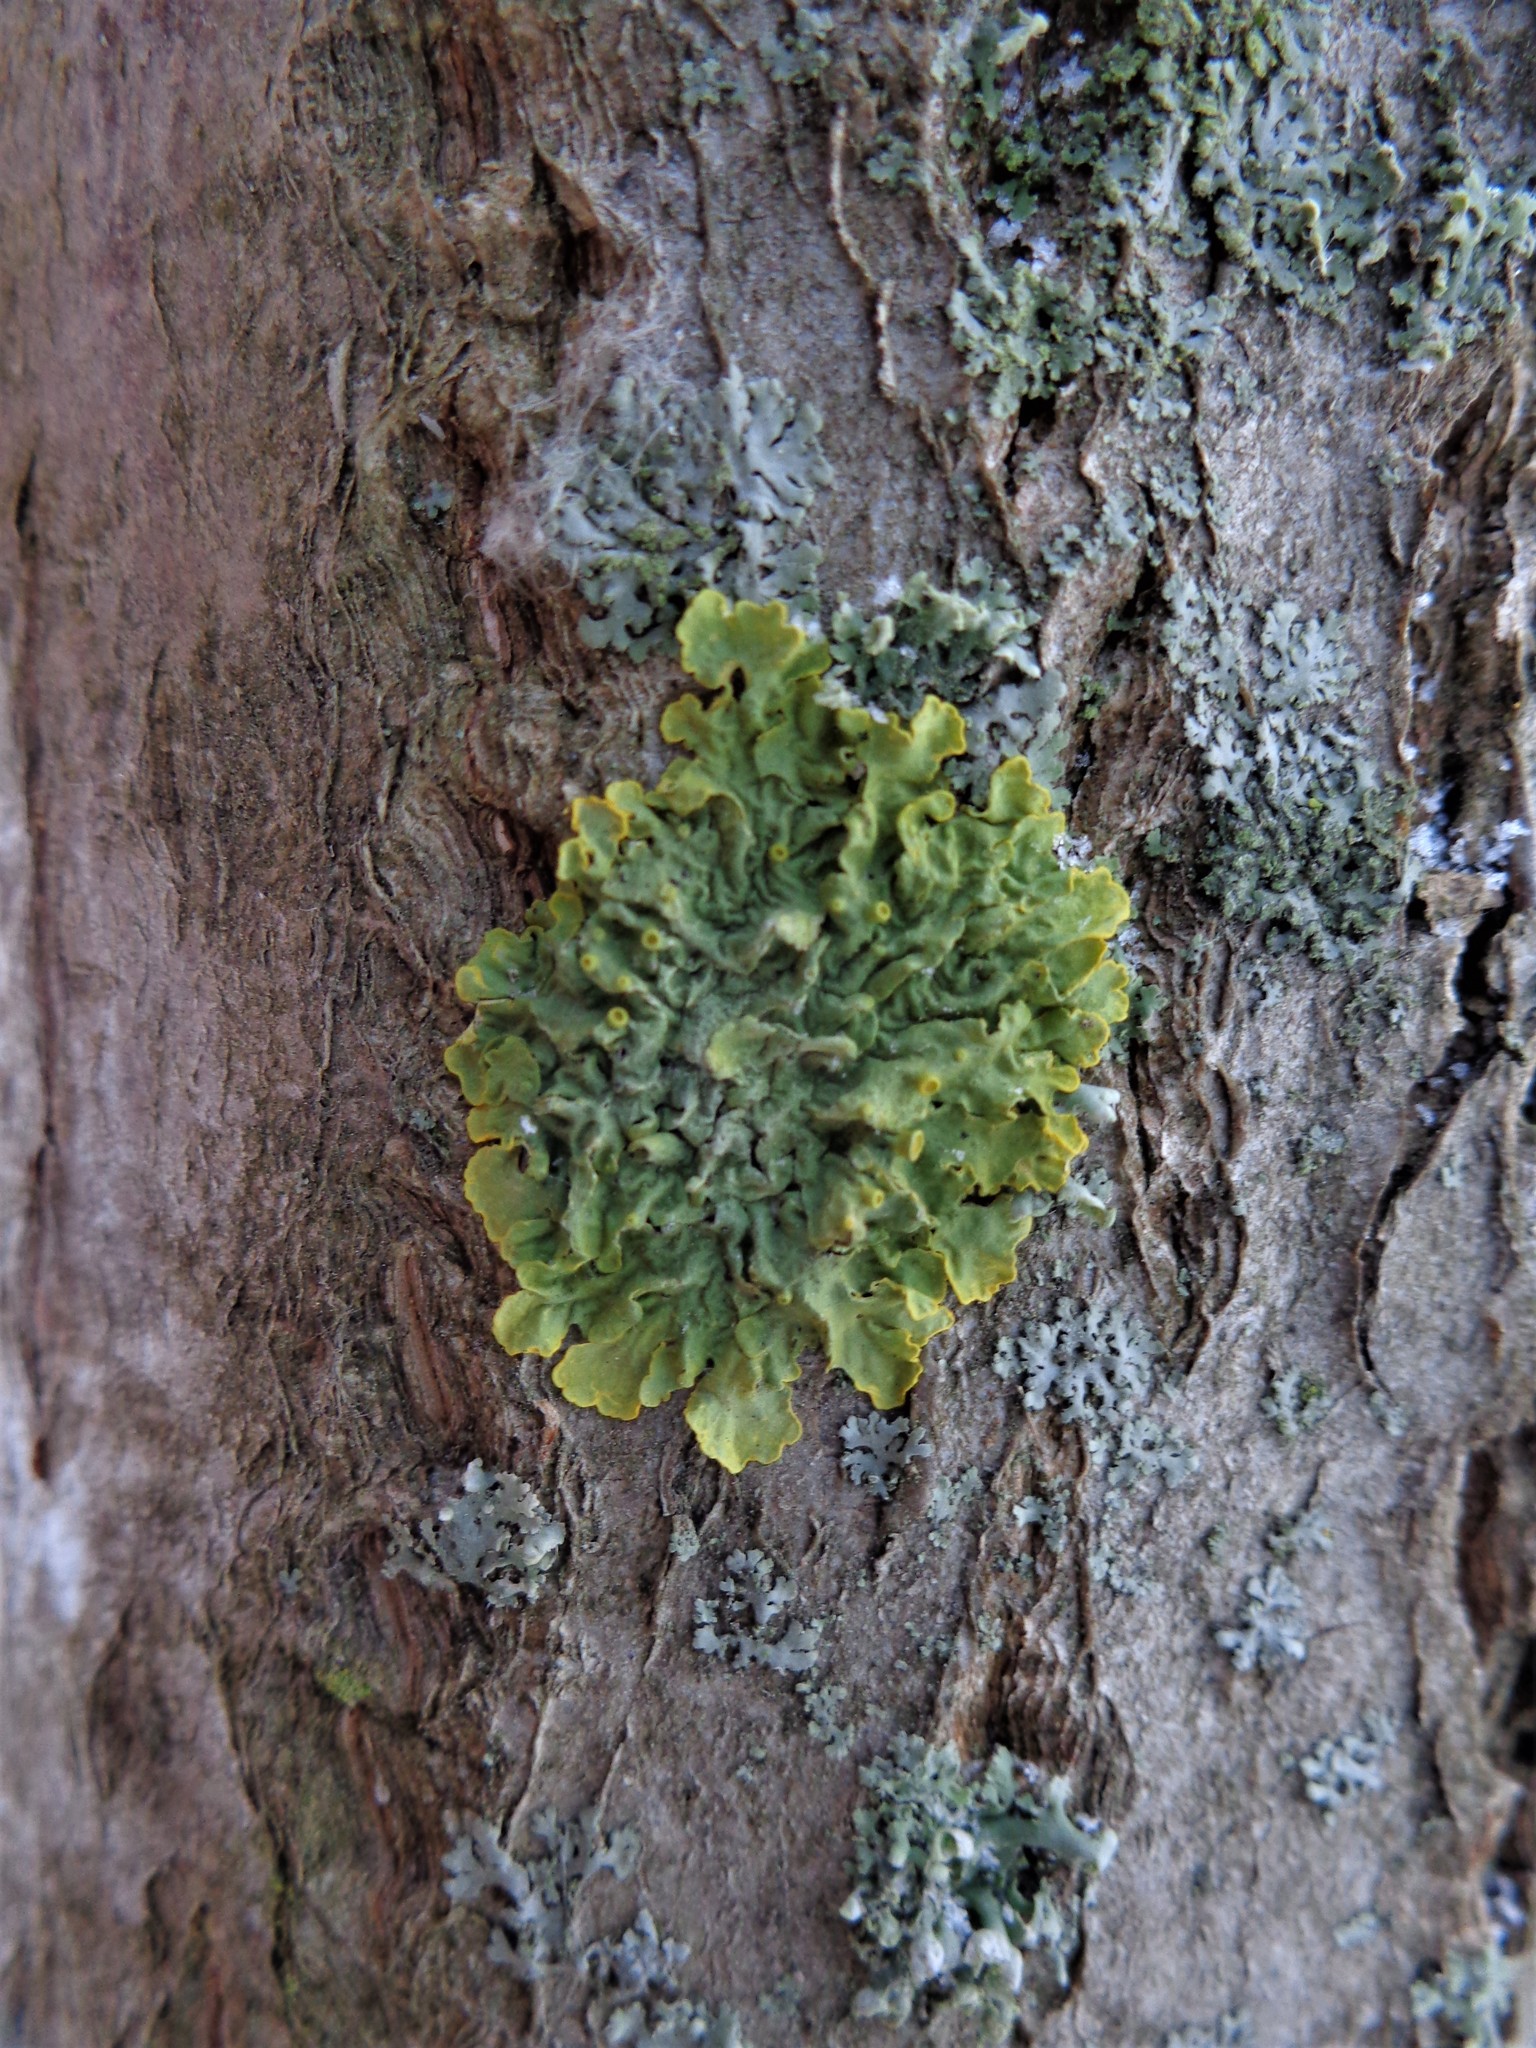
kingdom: Fungi
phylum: Ascomycota
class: Lecanoromycetes
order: Teloschistales
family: Teloschistaceae
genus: Xanthoria
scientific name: Xanthoria parietina
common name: Common orange lichen
